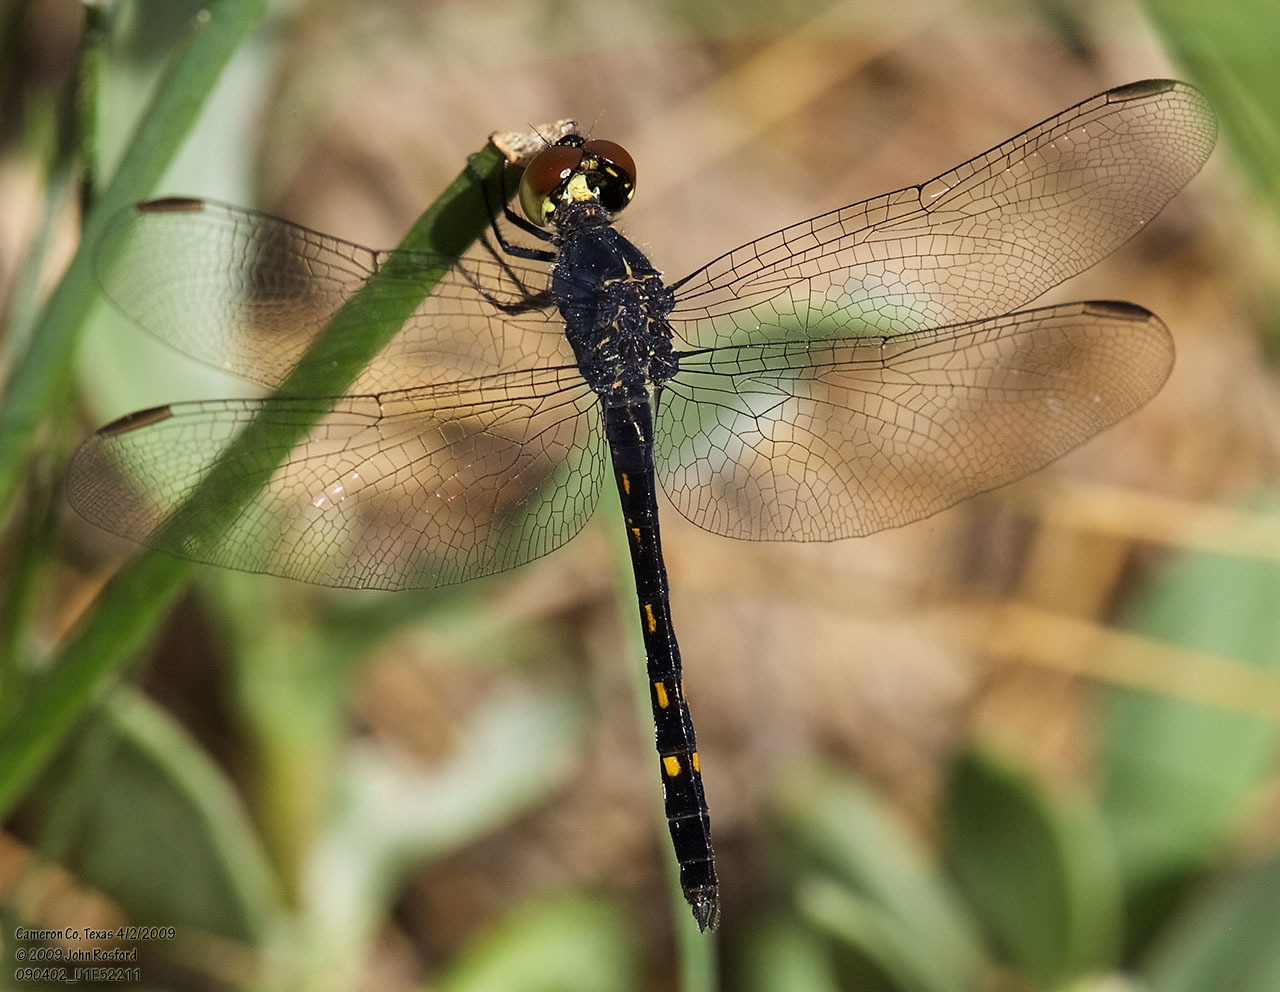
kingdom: Animalia
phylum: Arthropoda
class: Insecta
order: Odonata
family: Libellulidae
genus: Erythrodiplax
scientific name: Erythrodiplax berenice
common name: Seaside dragonlet
